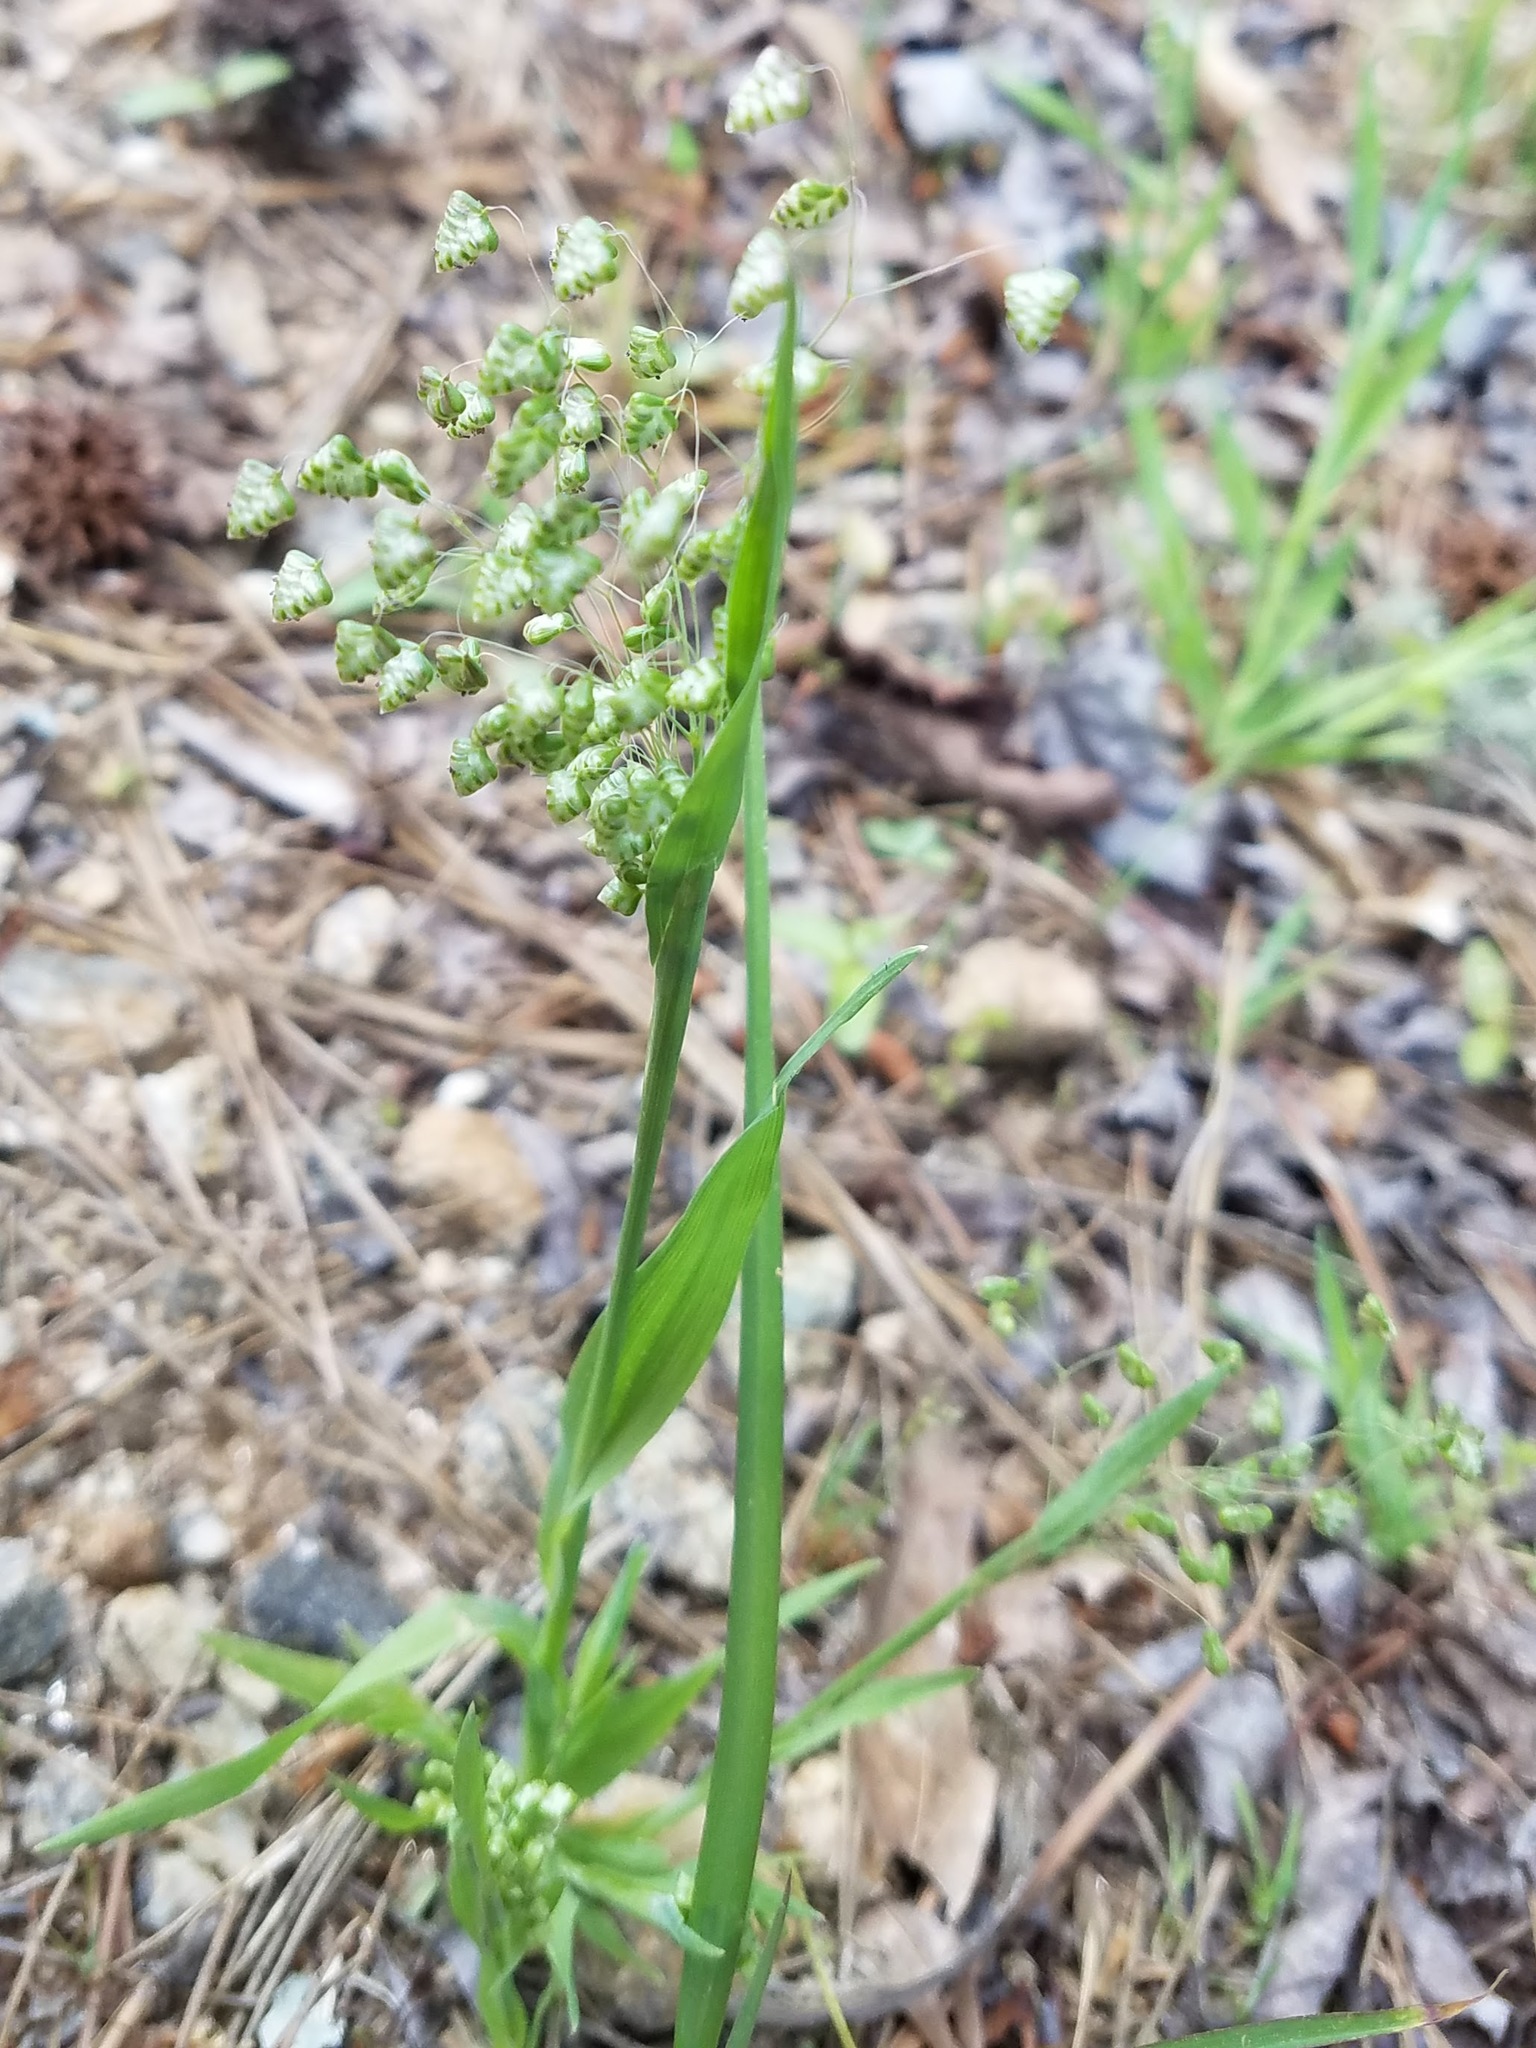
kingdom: Plantae
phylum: Tracheophyta
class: Liliopsida
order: Poales
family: Poaceae
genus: Briza
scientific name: Briza minor
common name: Lesser quaking-grass
